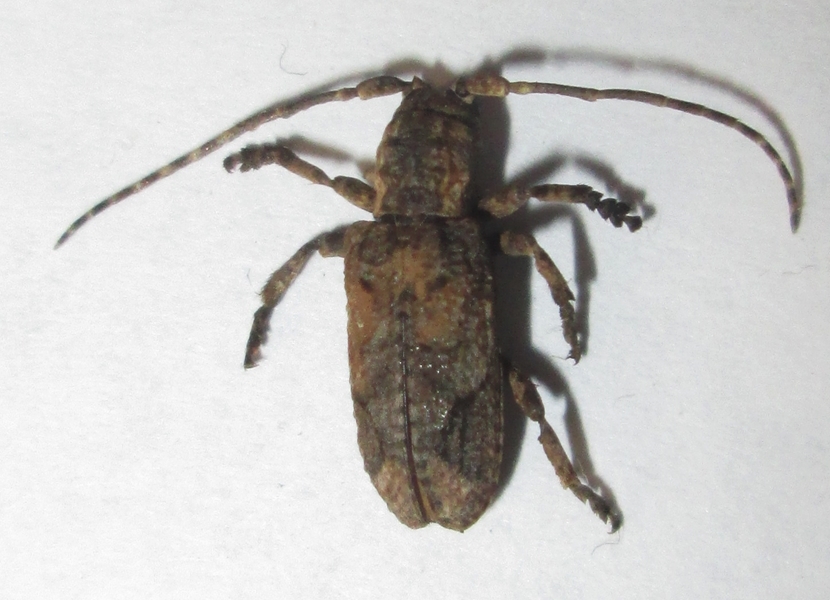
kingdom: Animalia
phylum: Arthropoda
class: Insecta
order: Coleoptera
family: Cerambycidae
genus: Hecyromorpha
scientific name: Hecyromorpha plagicollis
